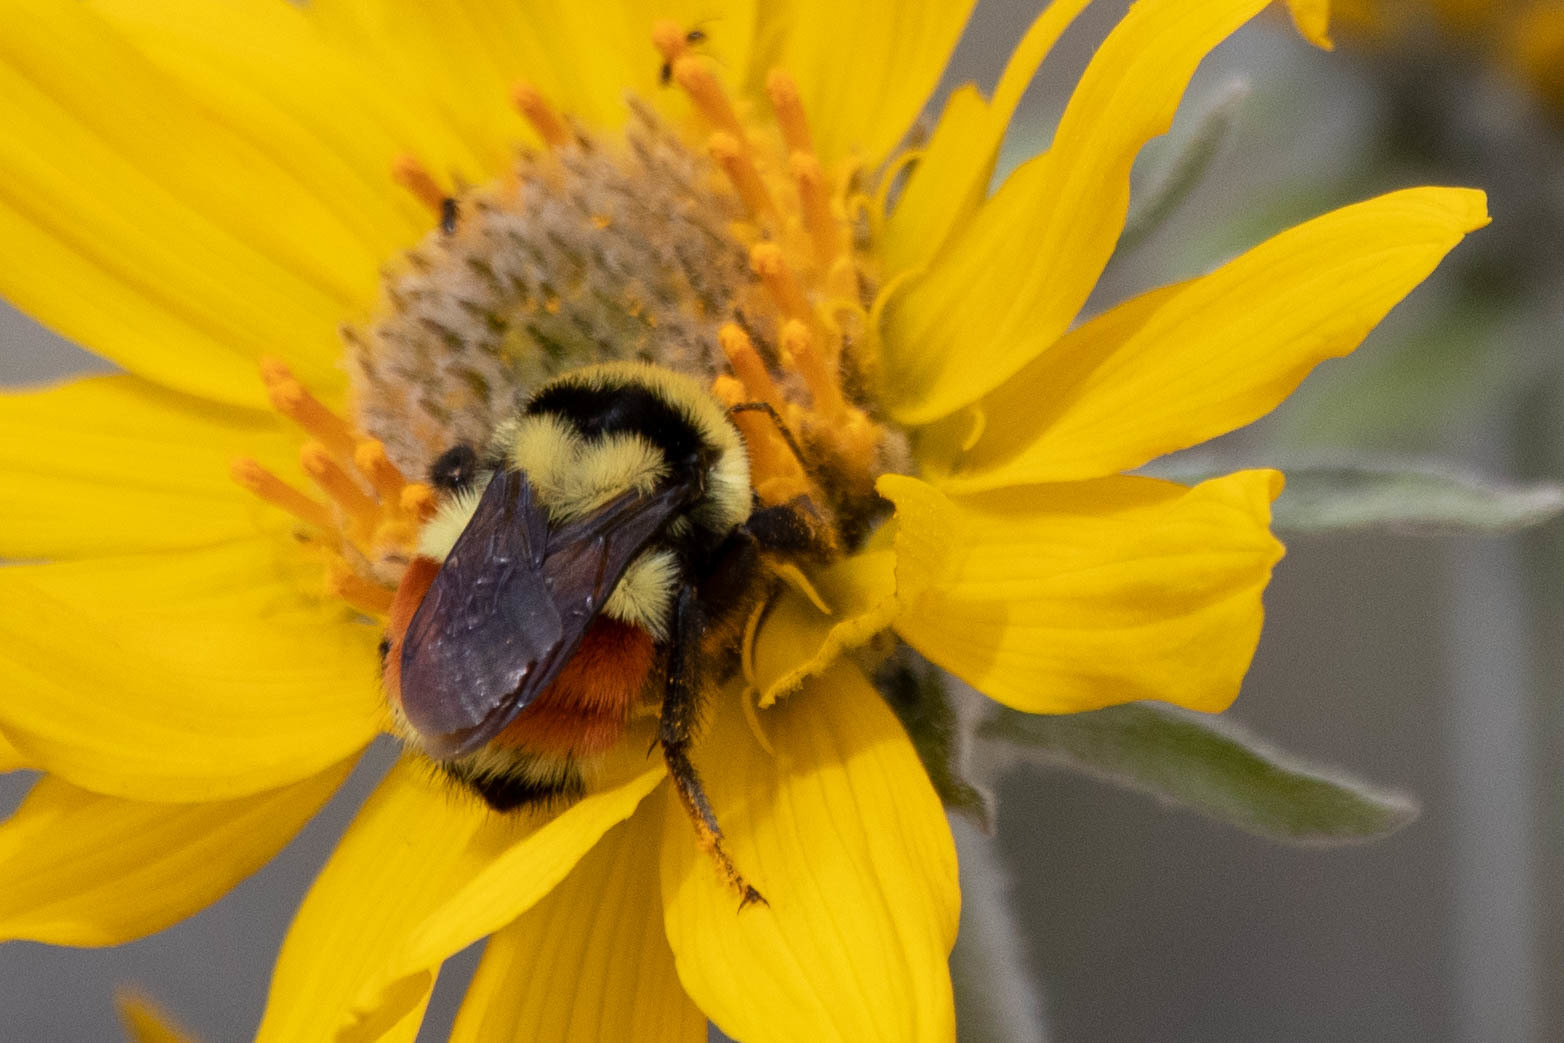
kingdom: Animalia
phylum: Arthropoda
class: Insecta
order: Hymenoptera
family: Apidae
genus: Bombus
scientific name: Bombus huntii
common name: Hunt bumble bee
